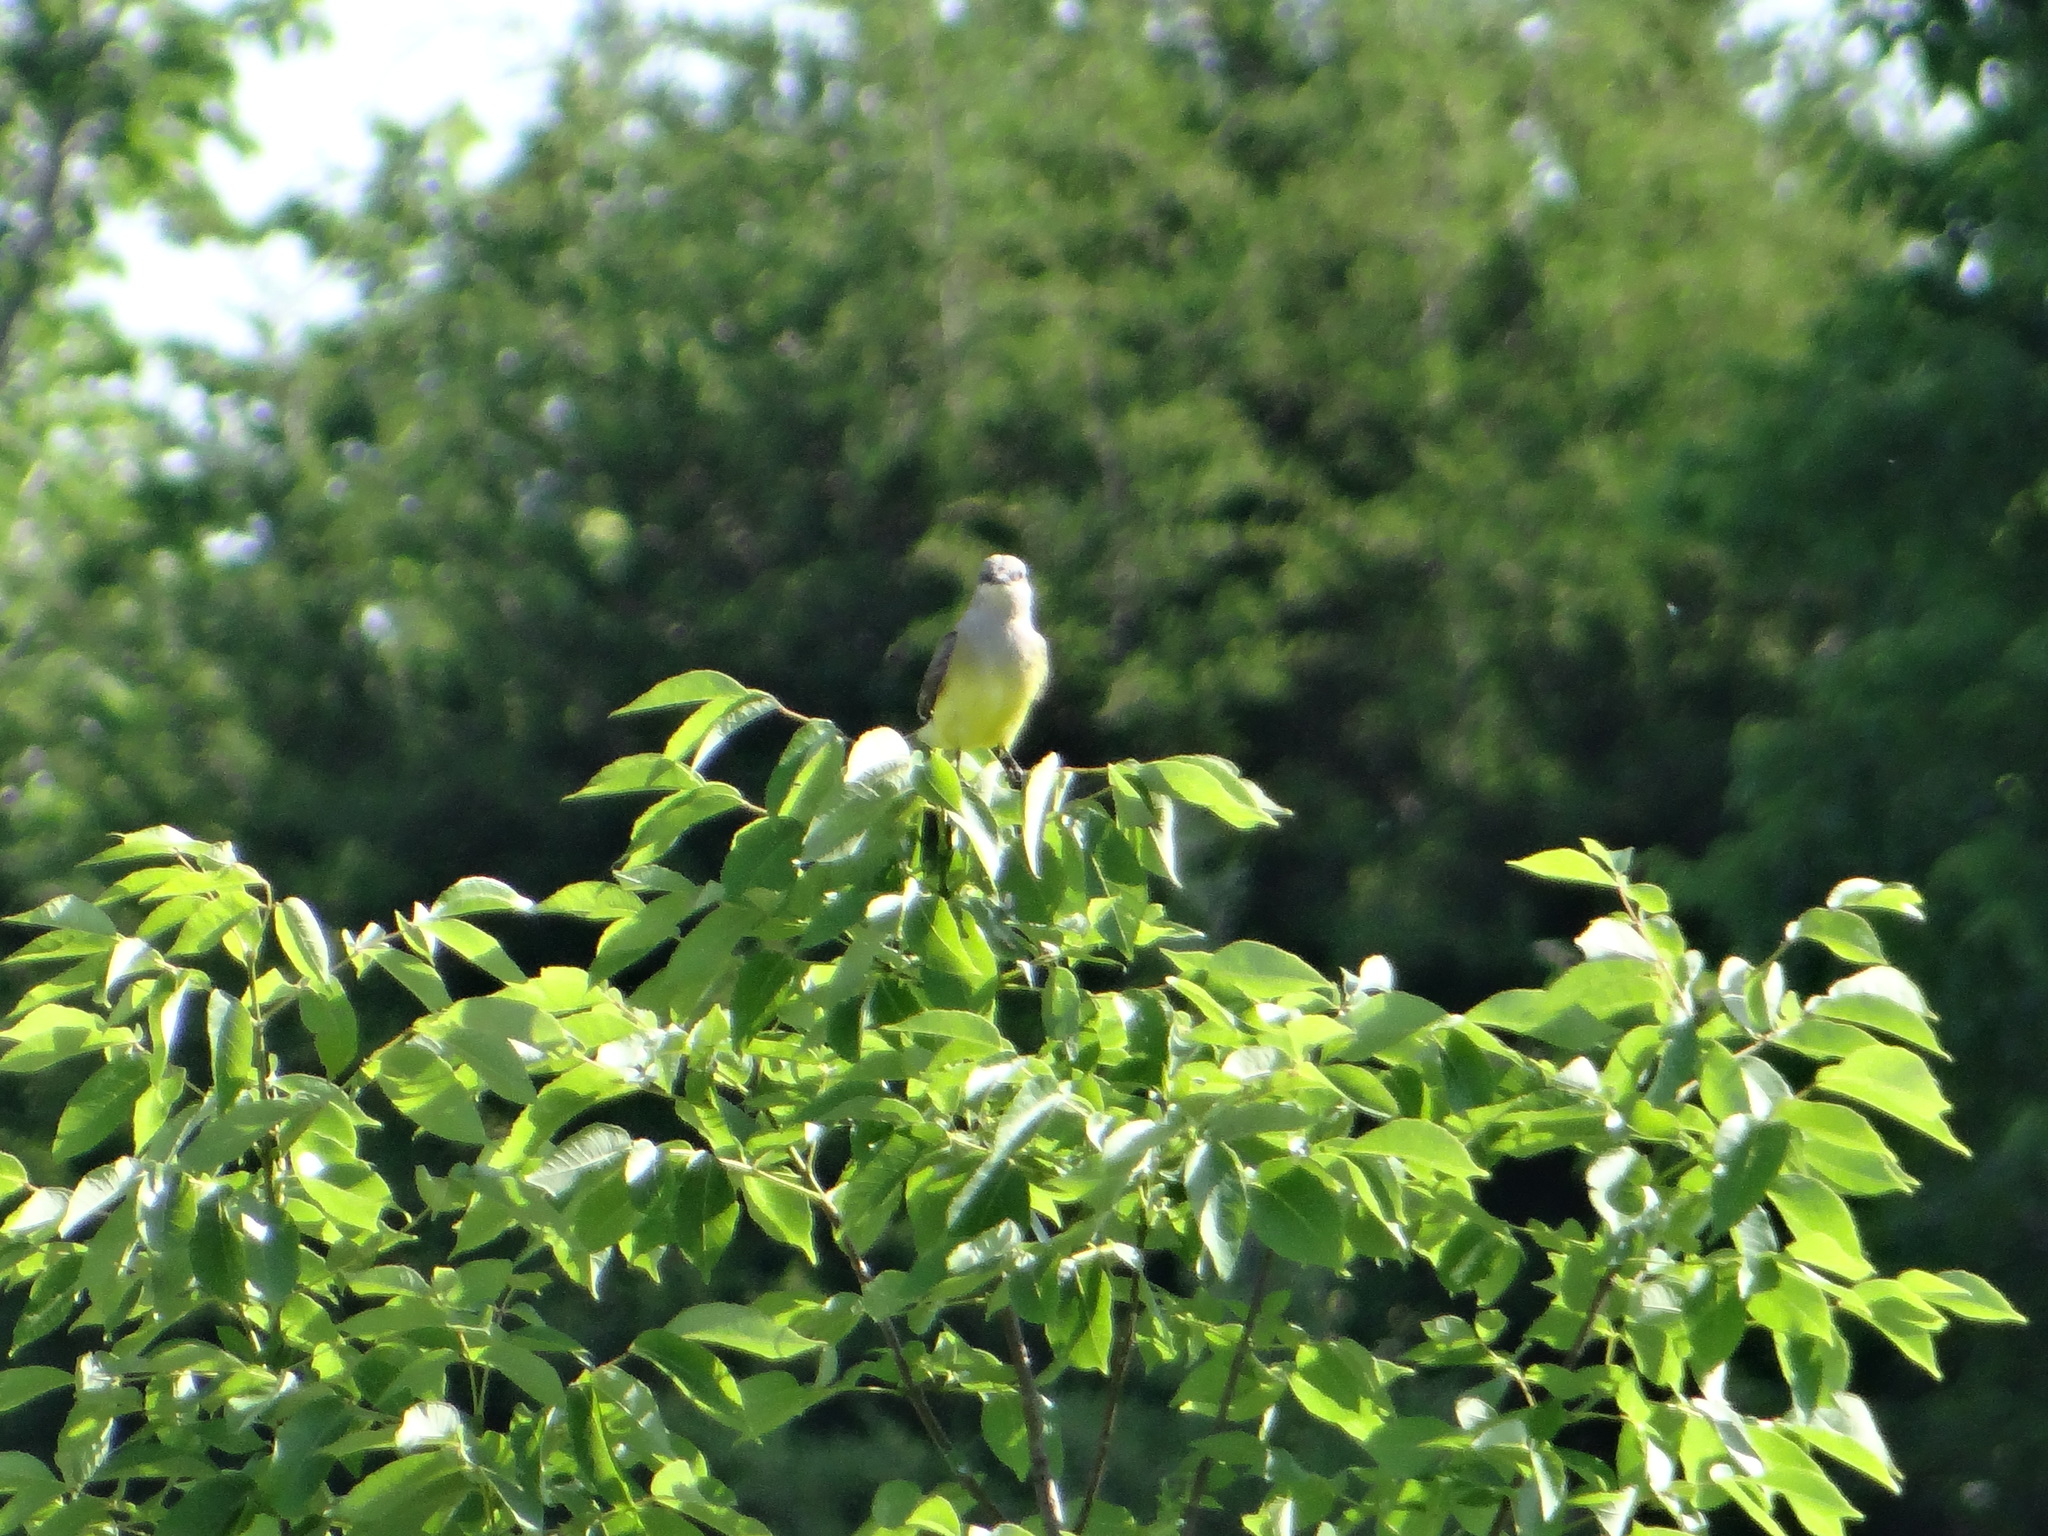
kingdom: Animalia
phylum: Chordata
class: Aves
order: Passeriformes
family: Tyrannidae
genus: Tyrannus
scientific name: Tyrannus verticalis
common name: Western kingbird
